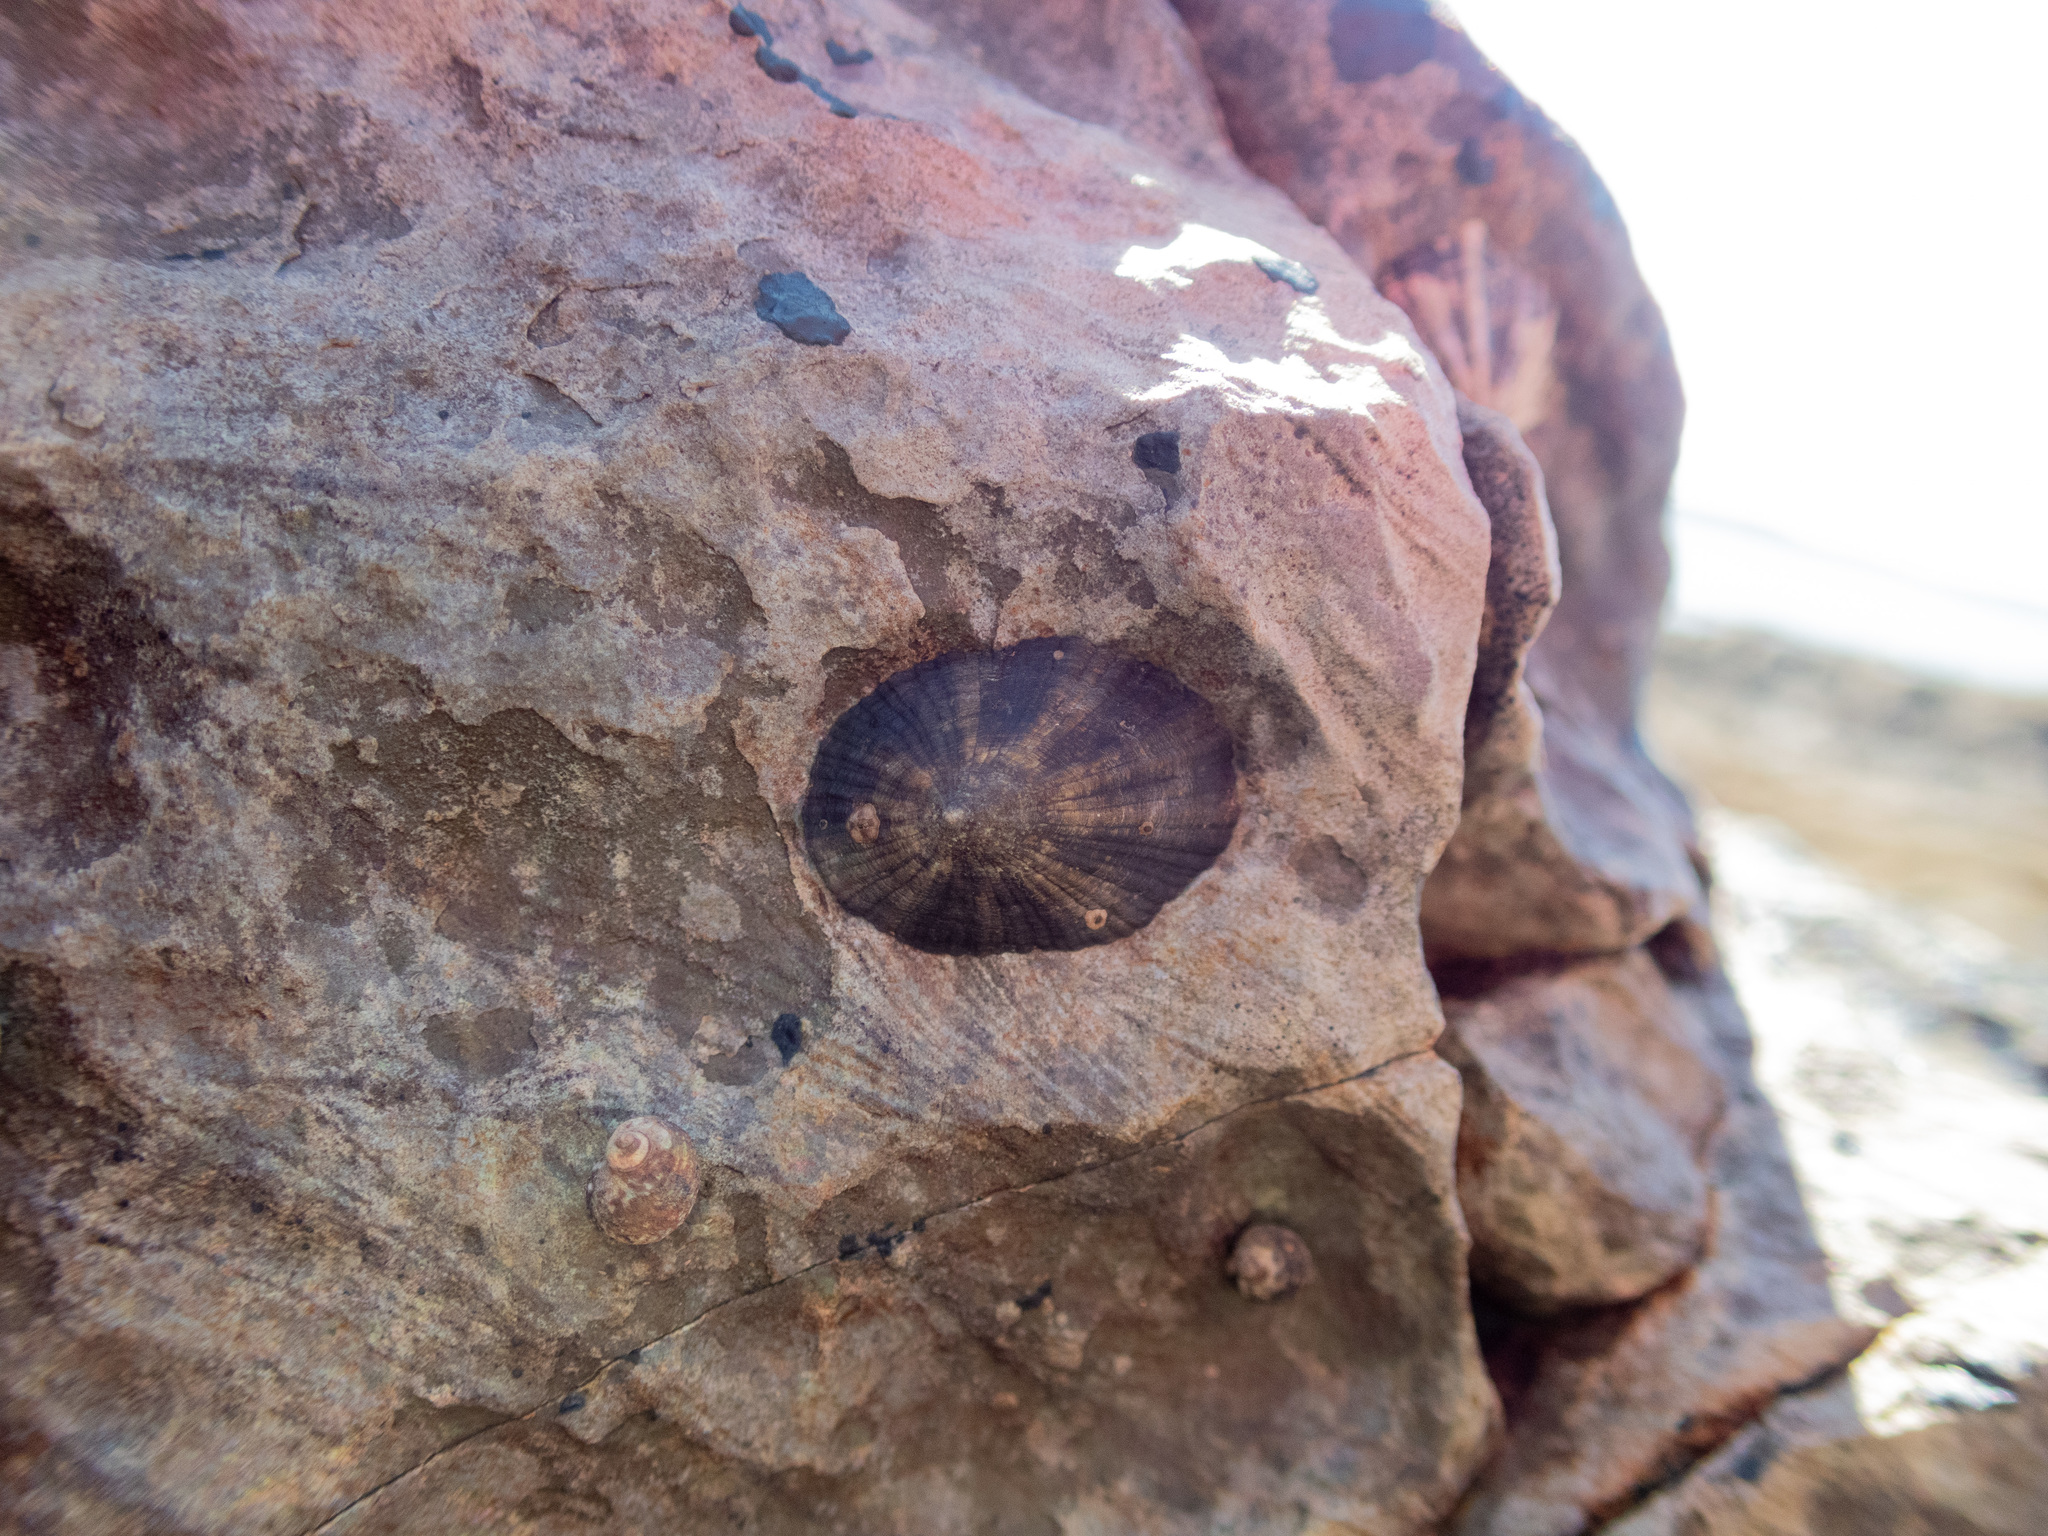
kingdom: Animalia
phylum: Mollusca
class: Gastropoda
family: Lottiidae
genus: Scurria
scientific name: Scurria stipulata
